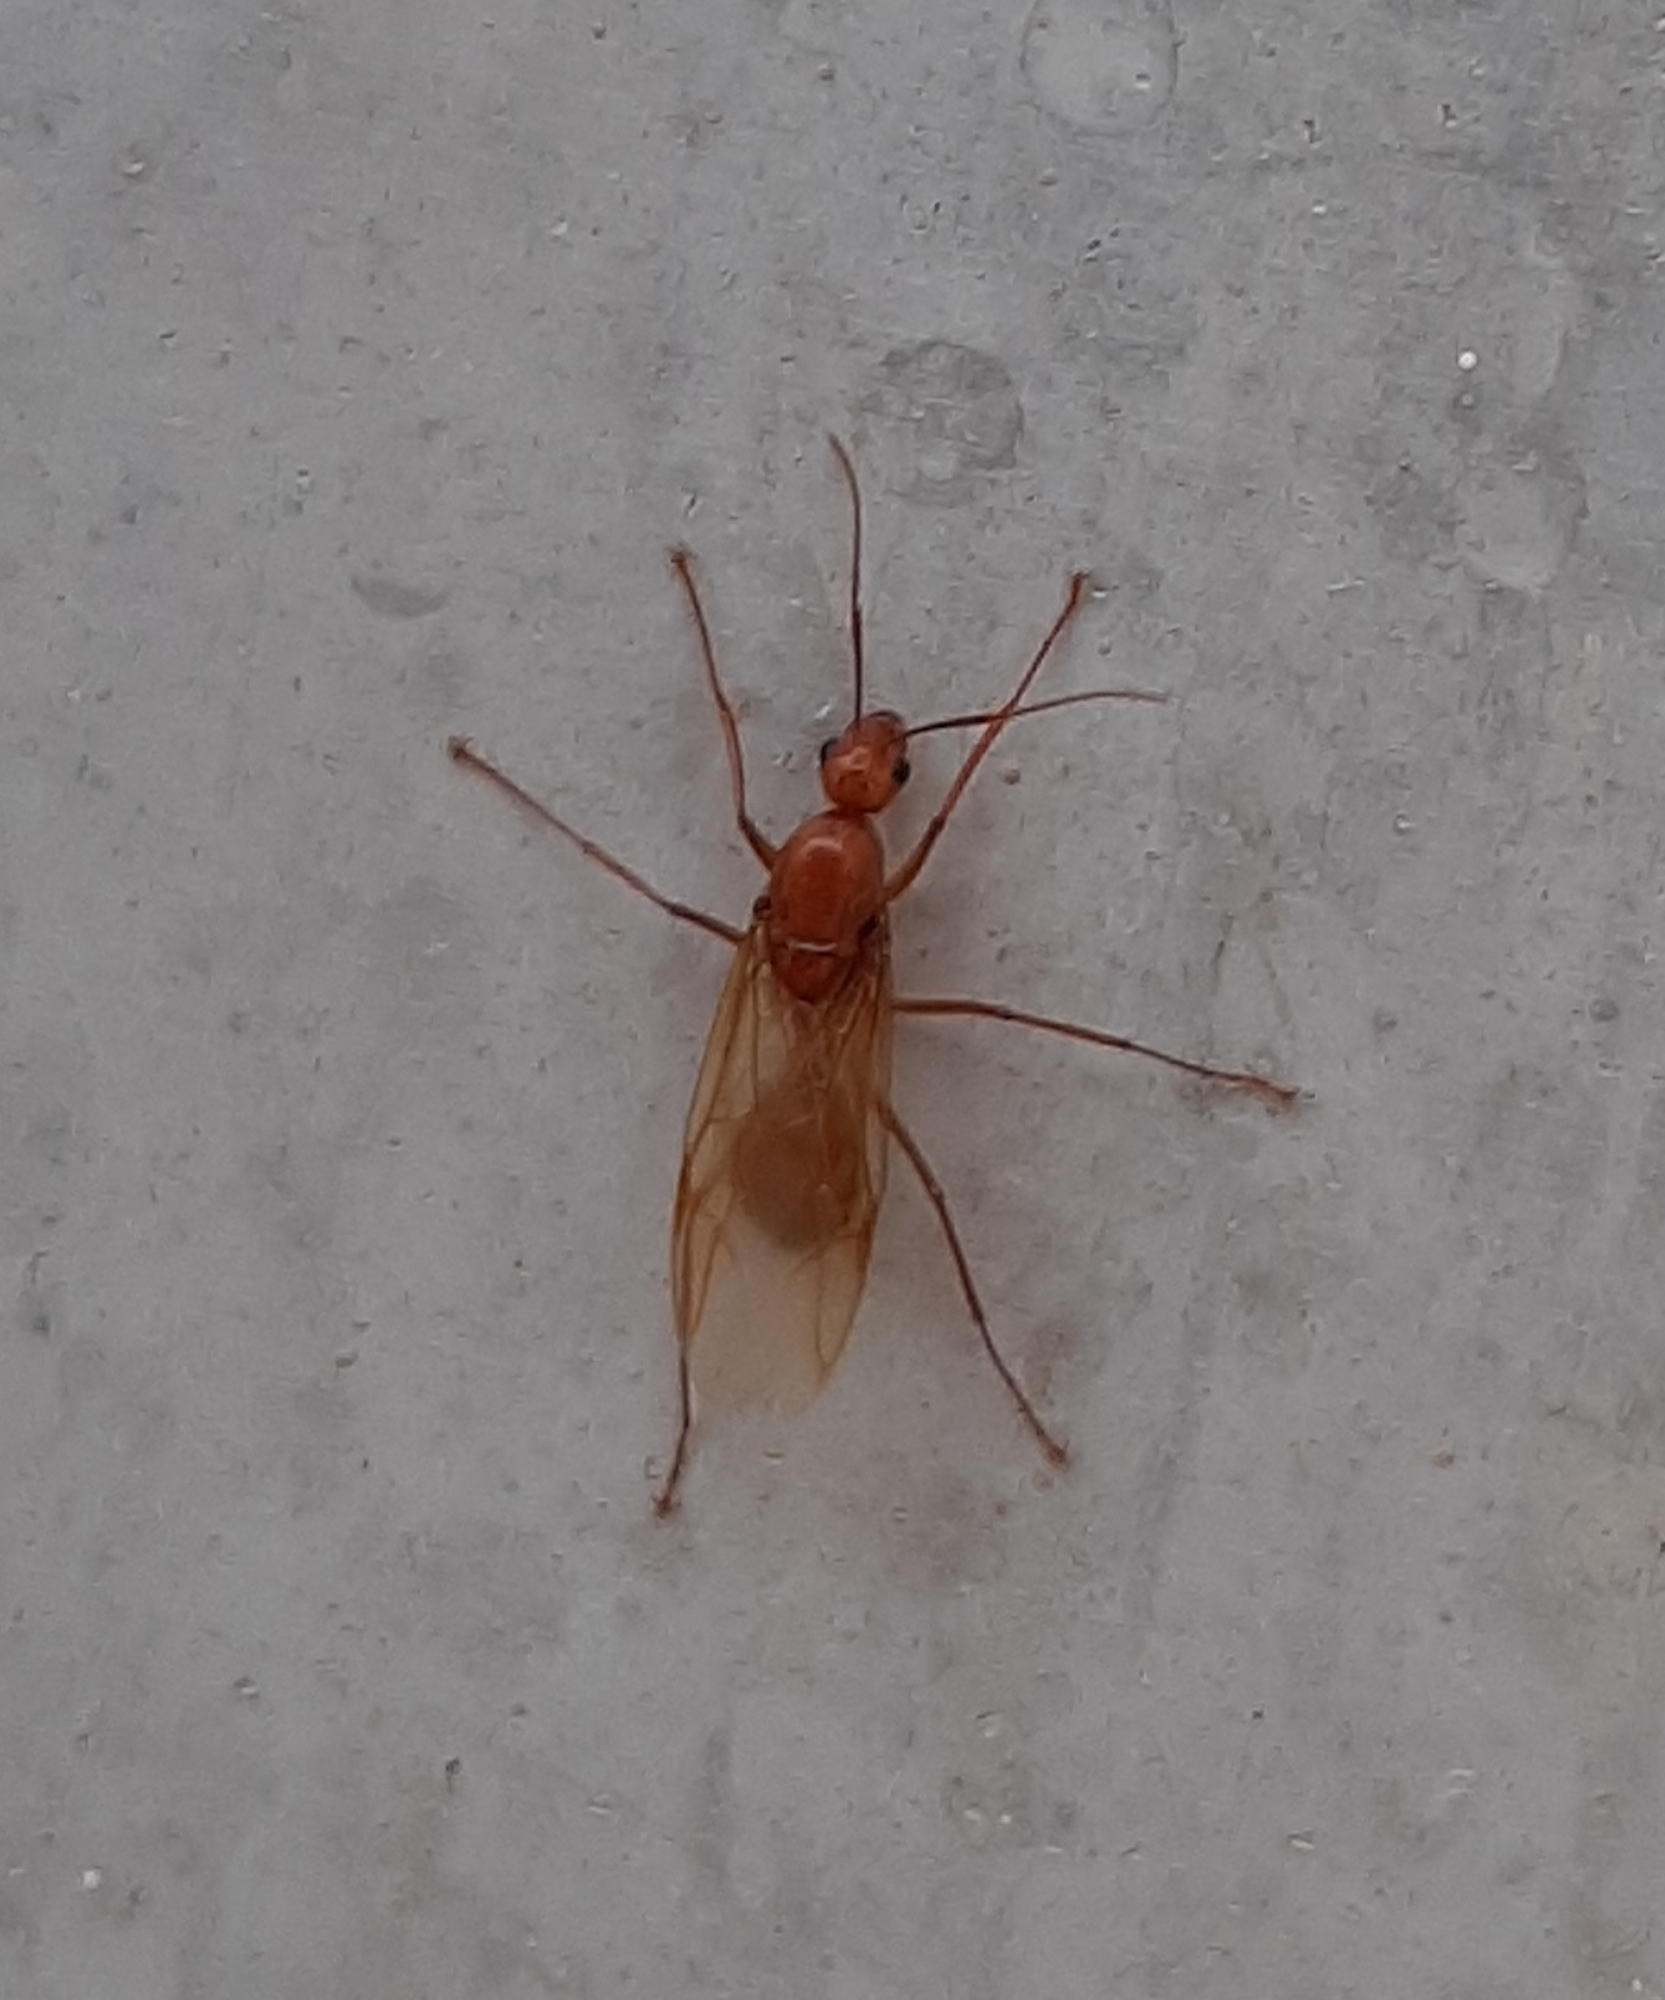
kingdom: Animalia
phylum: Arthropoda
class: Insecta
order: Hymenoptera
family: Formicidae
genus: Camponotus
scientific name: Camponotus castaneus
